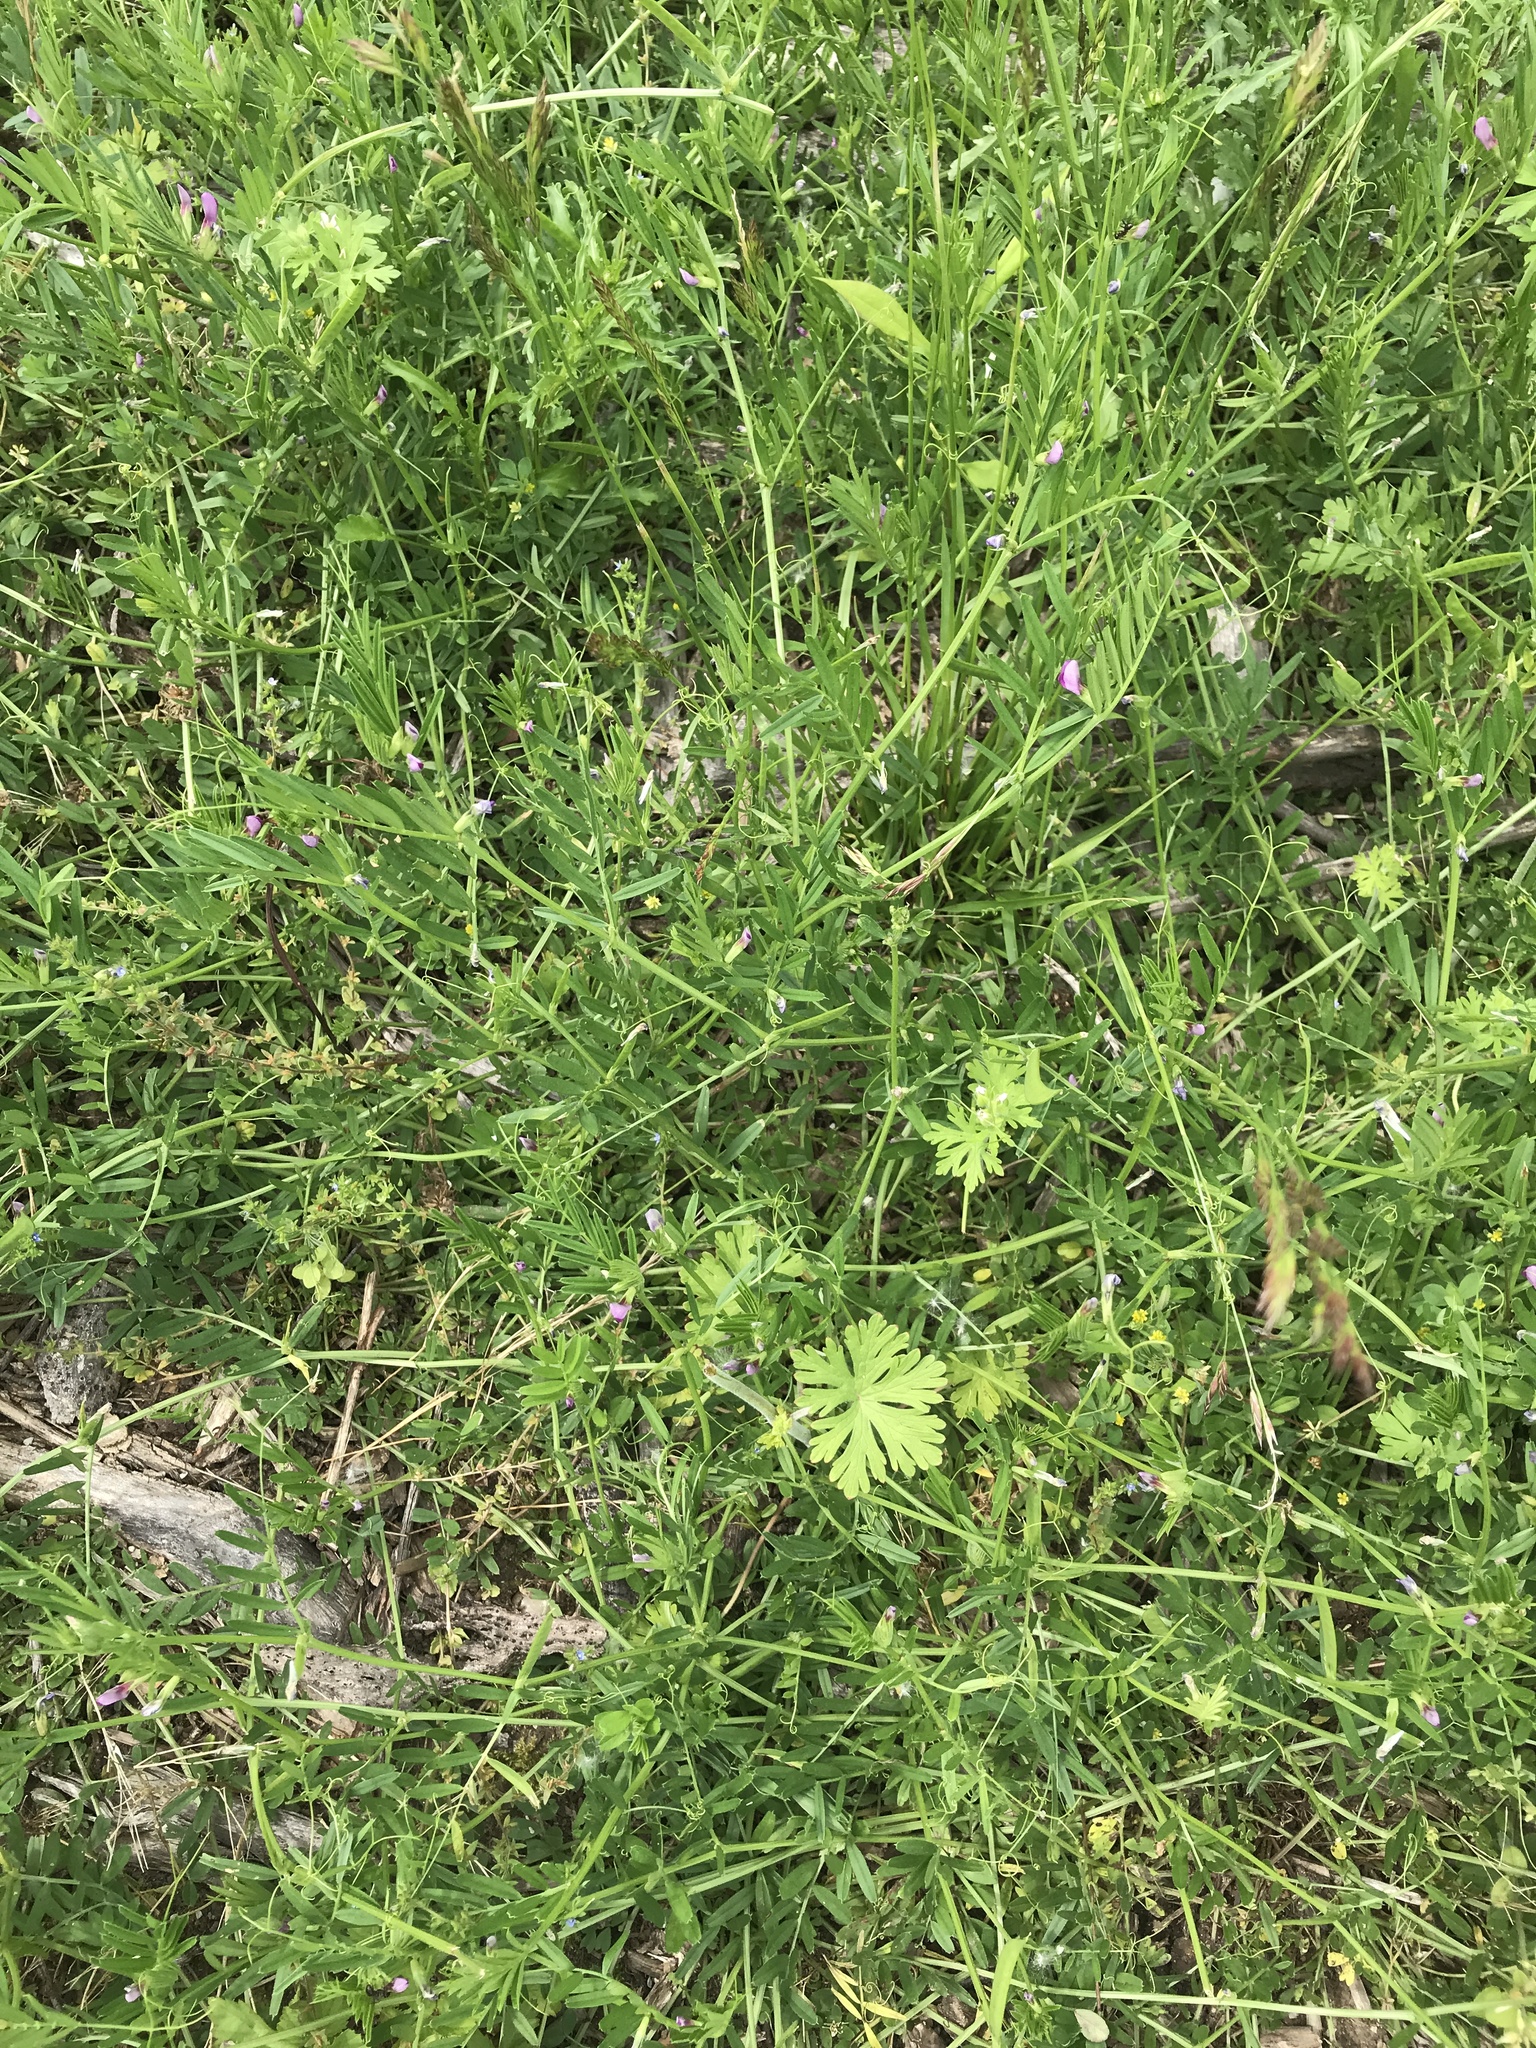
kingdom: Plantae
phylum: Tracheophyta
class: Magnoliopsida
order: Fabales
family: Fabaceae
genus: Vicia
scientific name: Vicia sativa
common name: Garden vetch
